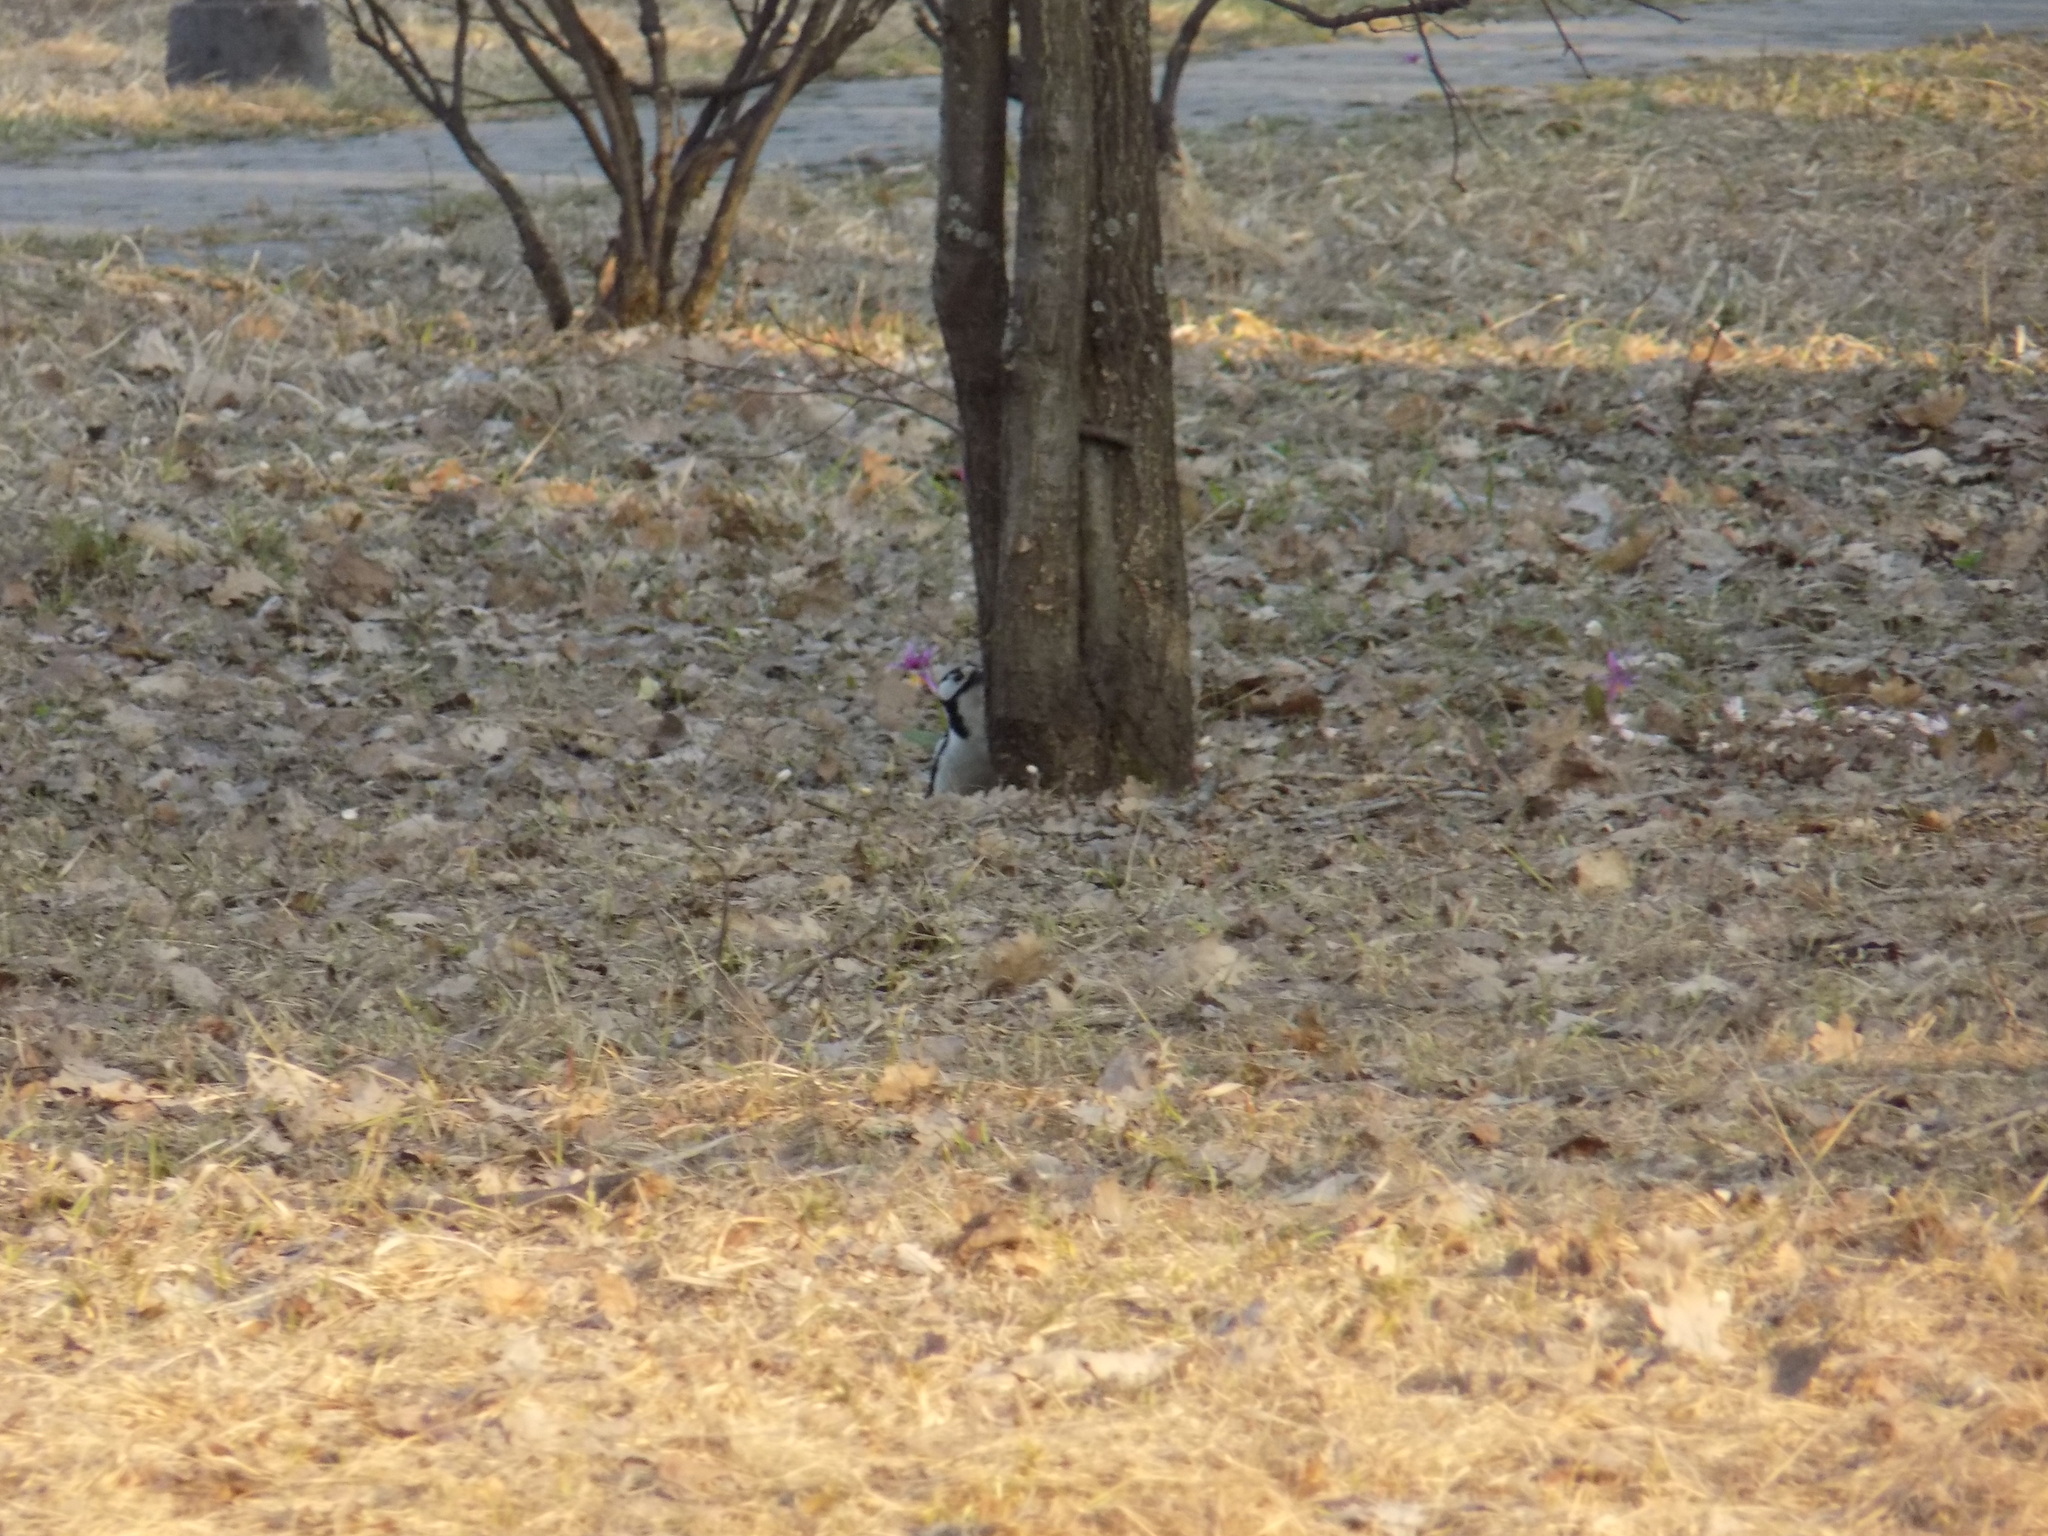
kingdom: Animalia
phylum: Chordata
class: Aves
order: Piciformes
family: Picidae
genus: Dendrocopos
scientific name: Dendrocopos major
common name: Great spotted woodpecker
